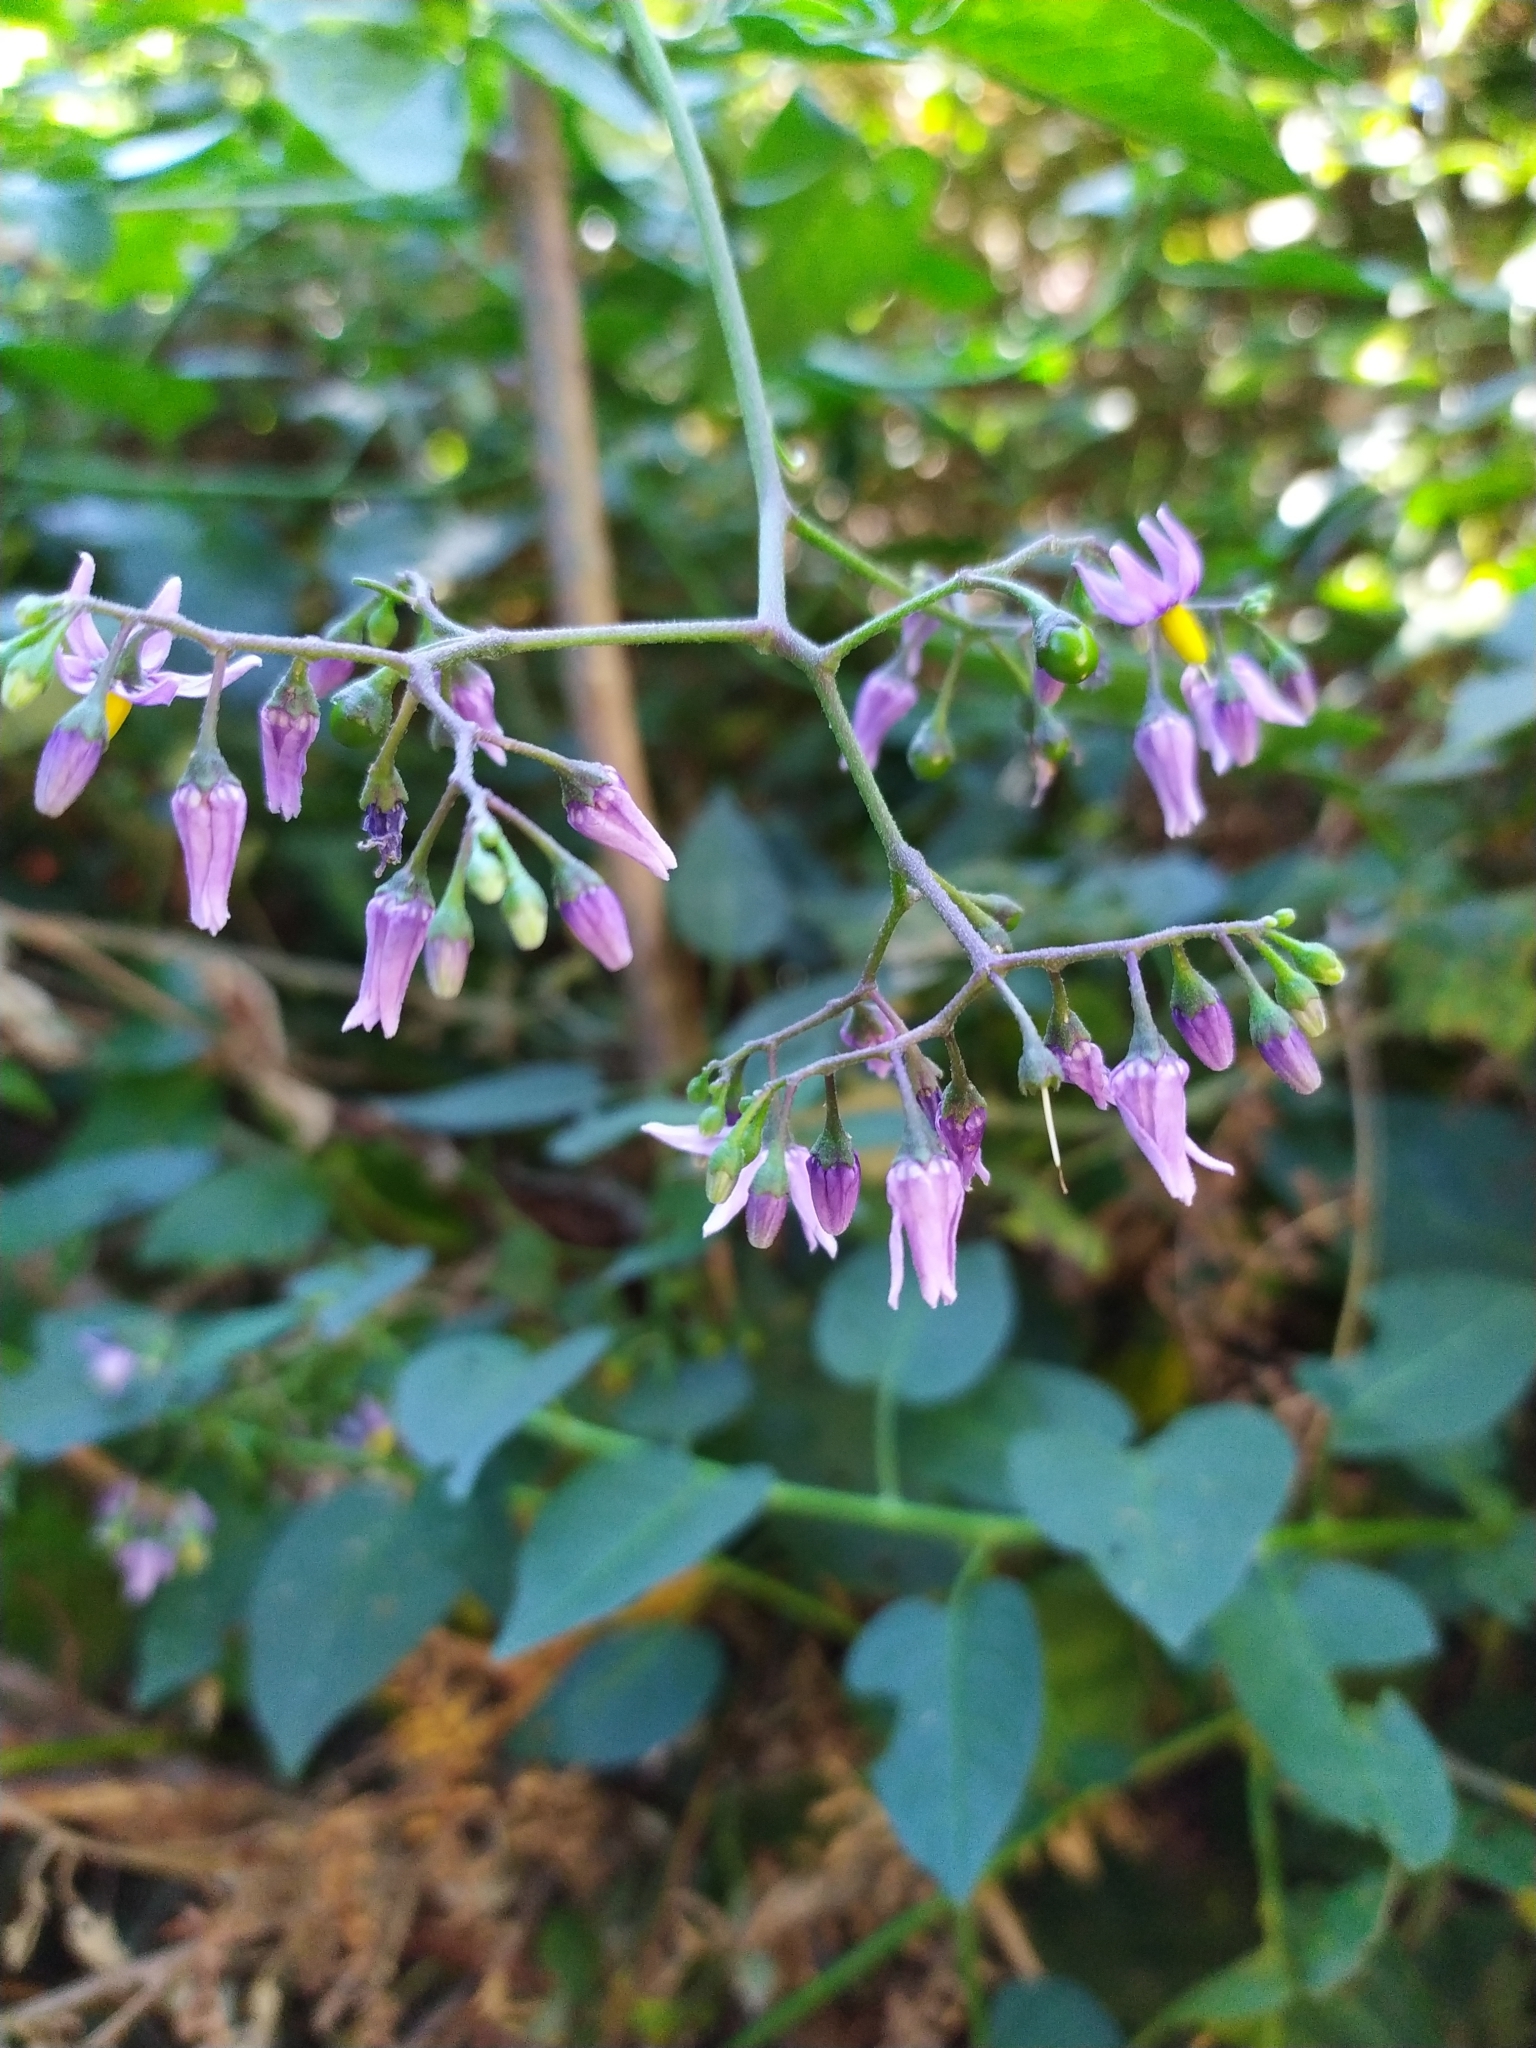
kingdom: Plantae
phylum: Tracheophyta
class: Magnoliopsida
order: Solanales
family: Solanaceae
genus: Solanum
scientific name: Solanum dulcamara
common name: Climbing nightshade
